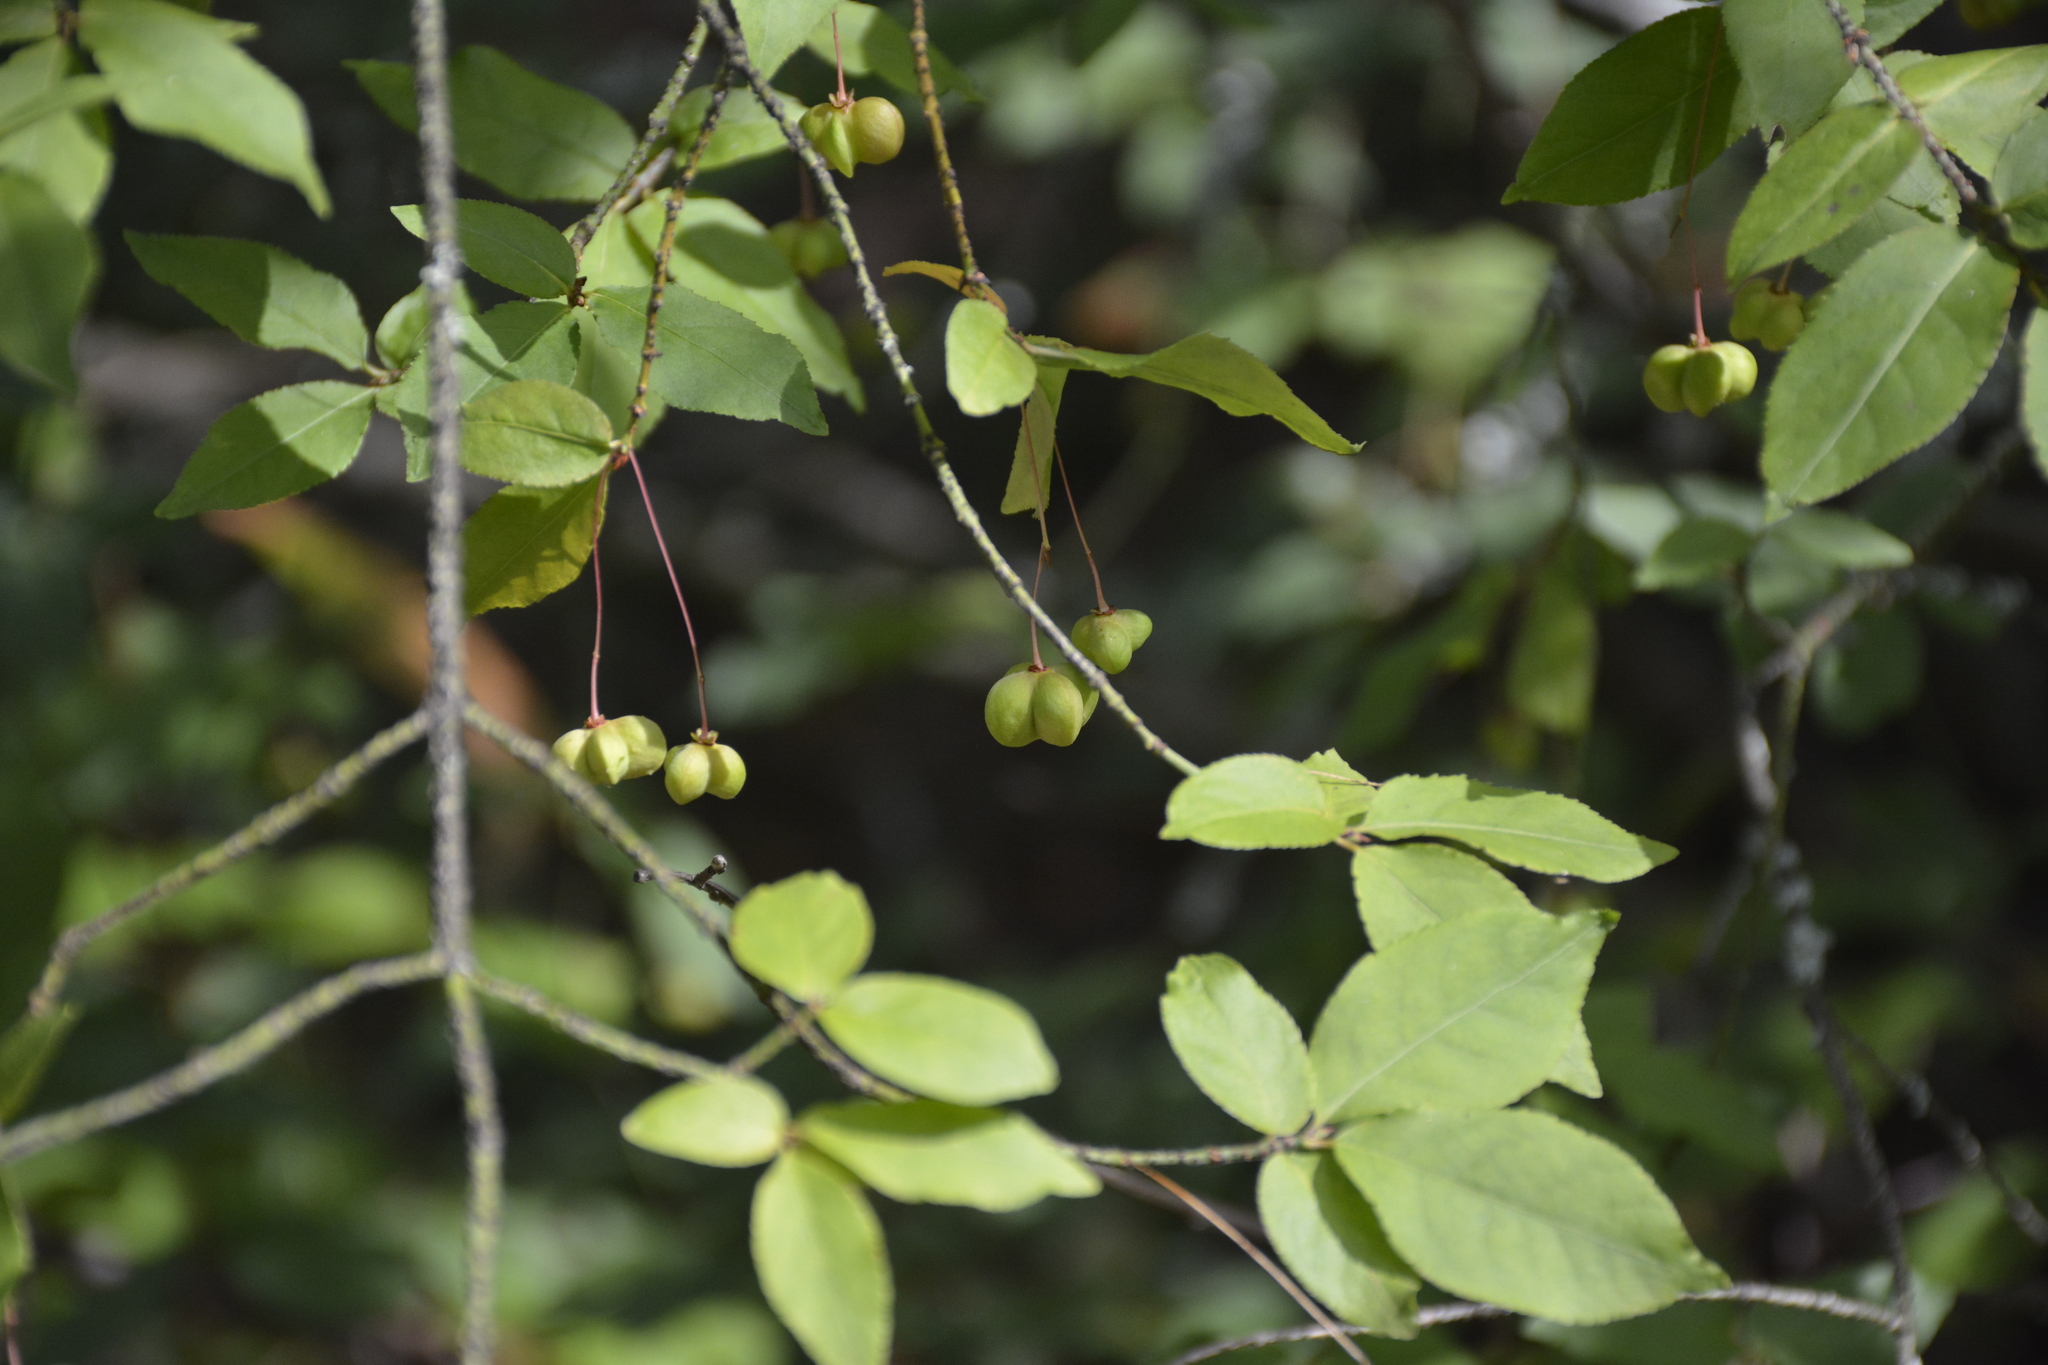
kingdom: Plantae
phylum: Tracheophyta
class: Magnoliopsida
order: Celastrales
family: Celastraceae
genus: Euonymus
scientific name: Euonymus verrucosus
